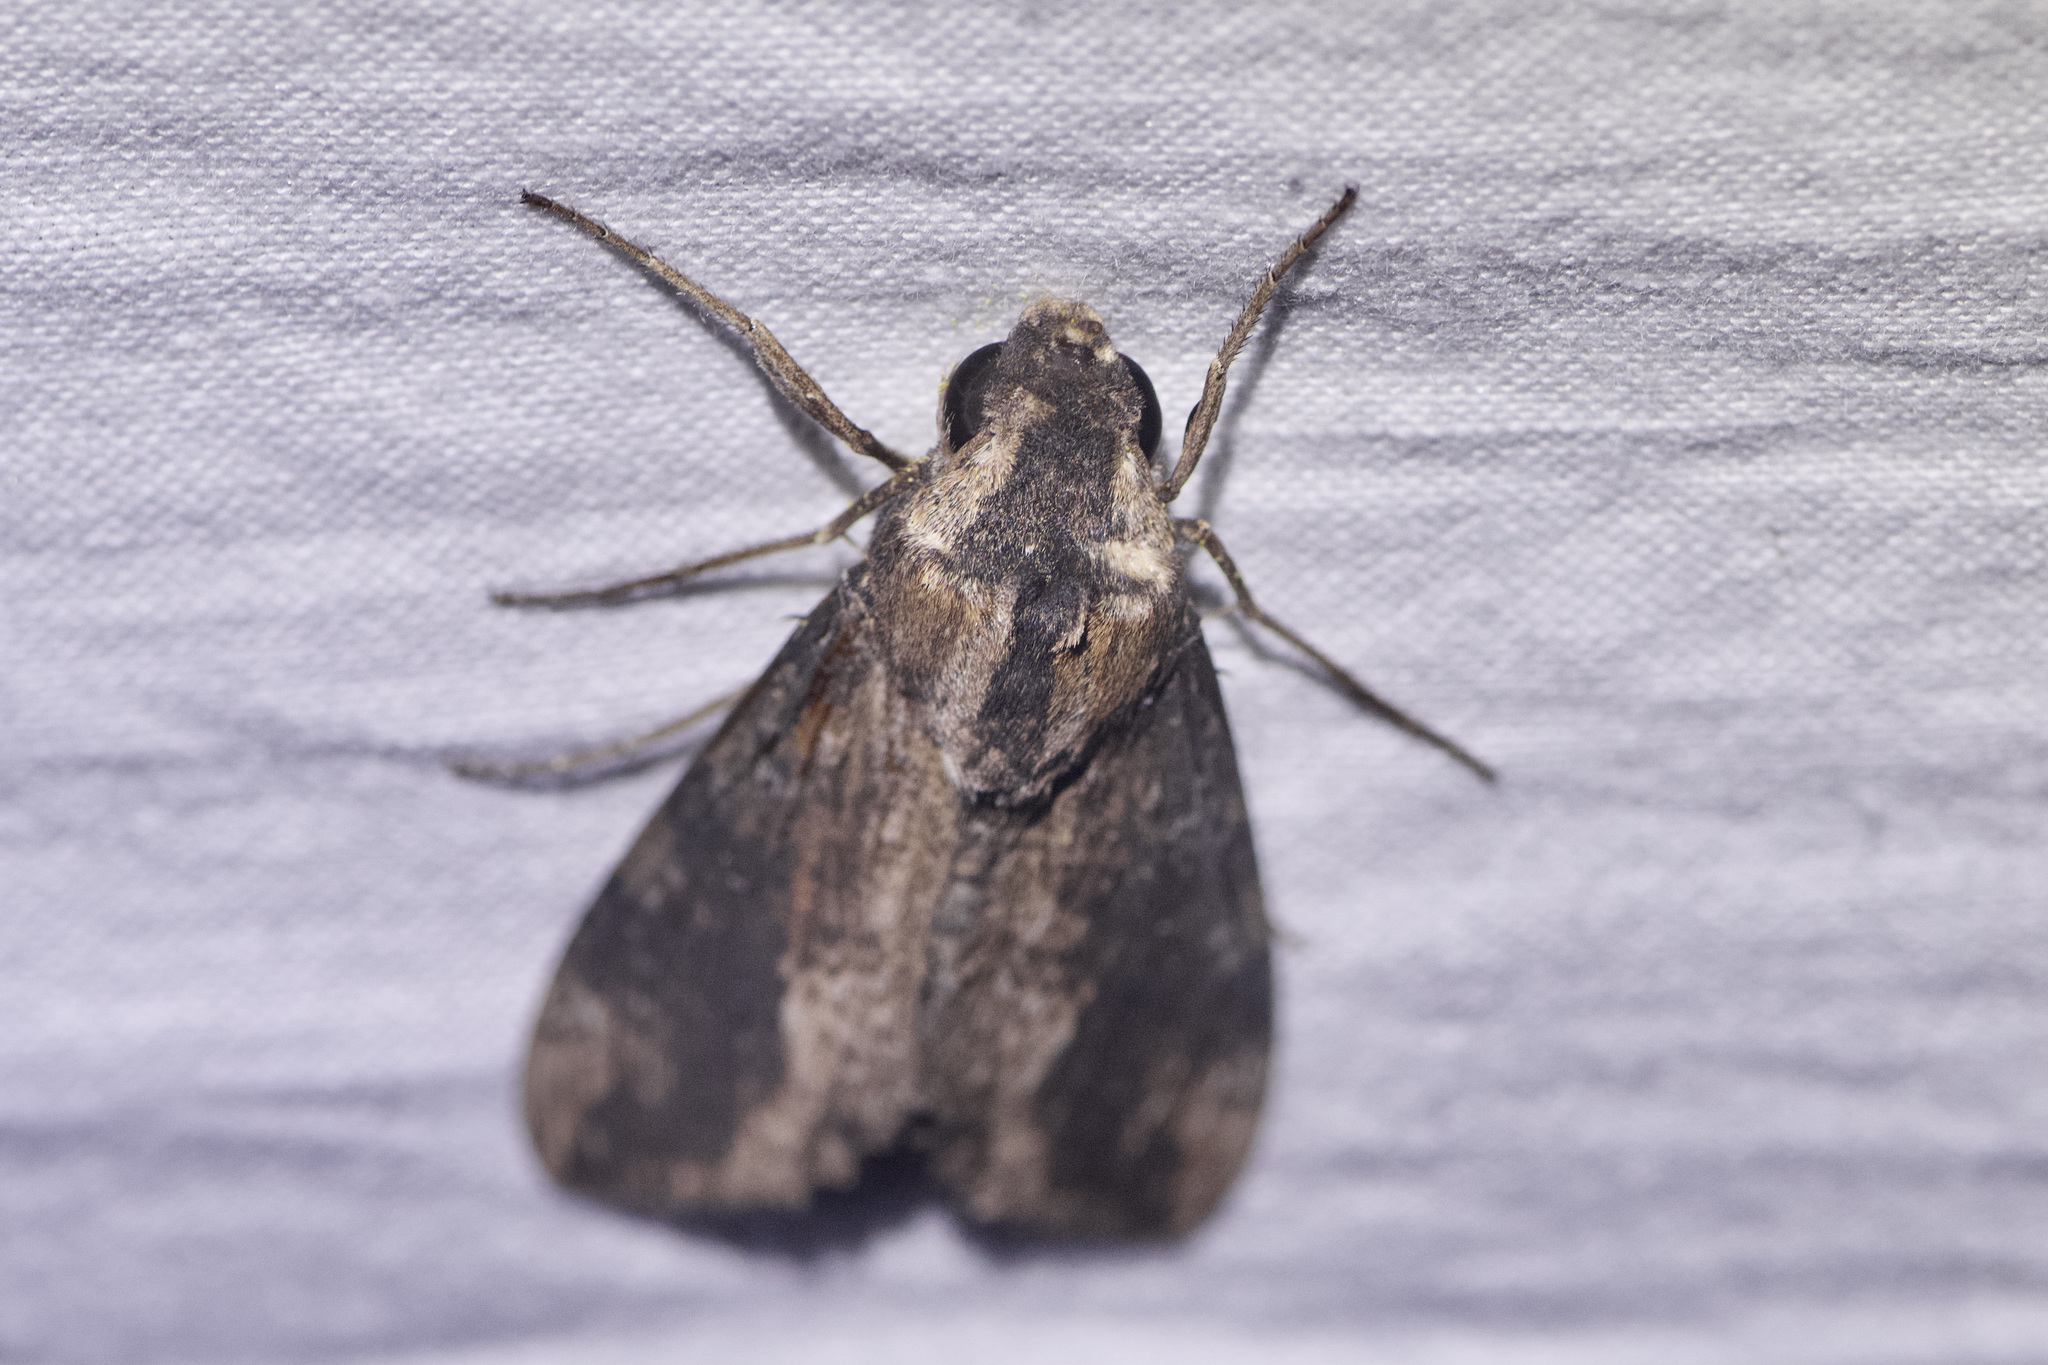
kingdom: Animalia
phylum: Arthropoda
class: Insecta
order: Lepidoptera
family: Sphingidae
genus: Erinnyis
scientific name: Erinnyis crameri
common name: Cramer's sphinx
